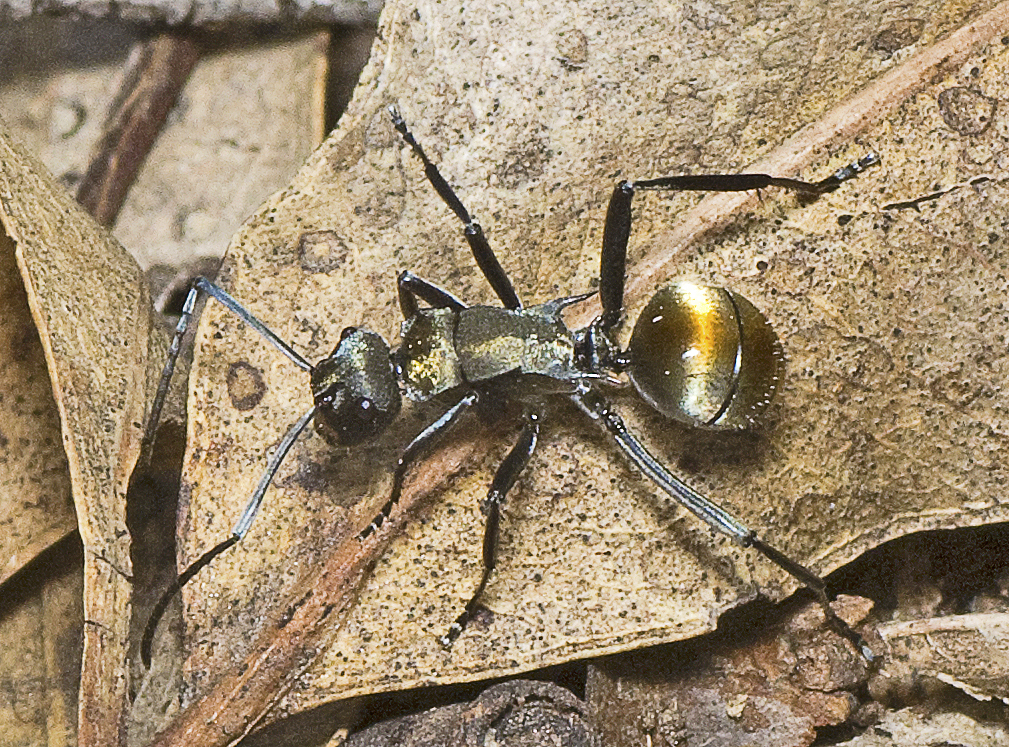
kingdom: Animalia
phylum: Arthropoda
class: Insecta
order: Hymenoptera
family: Formicidae
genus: Polyrhachis
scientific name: Polyrhachis ammon
